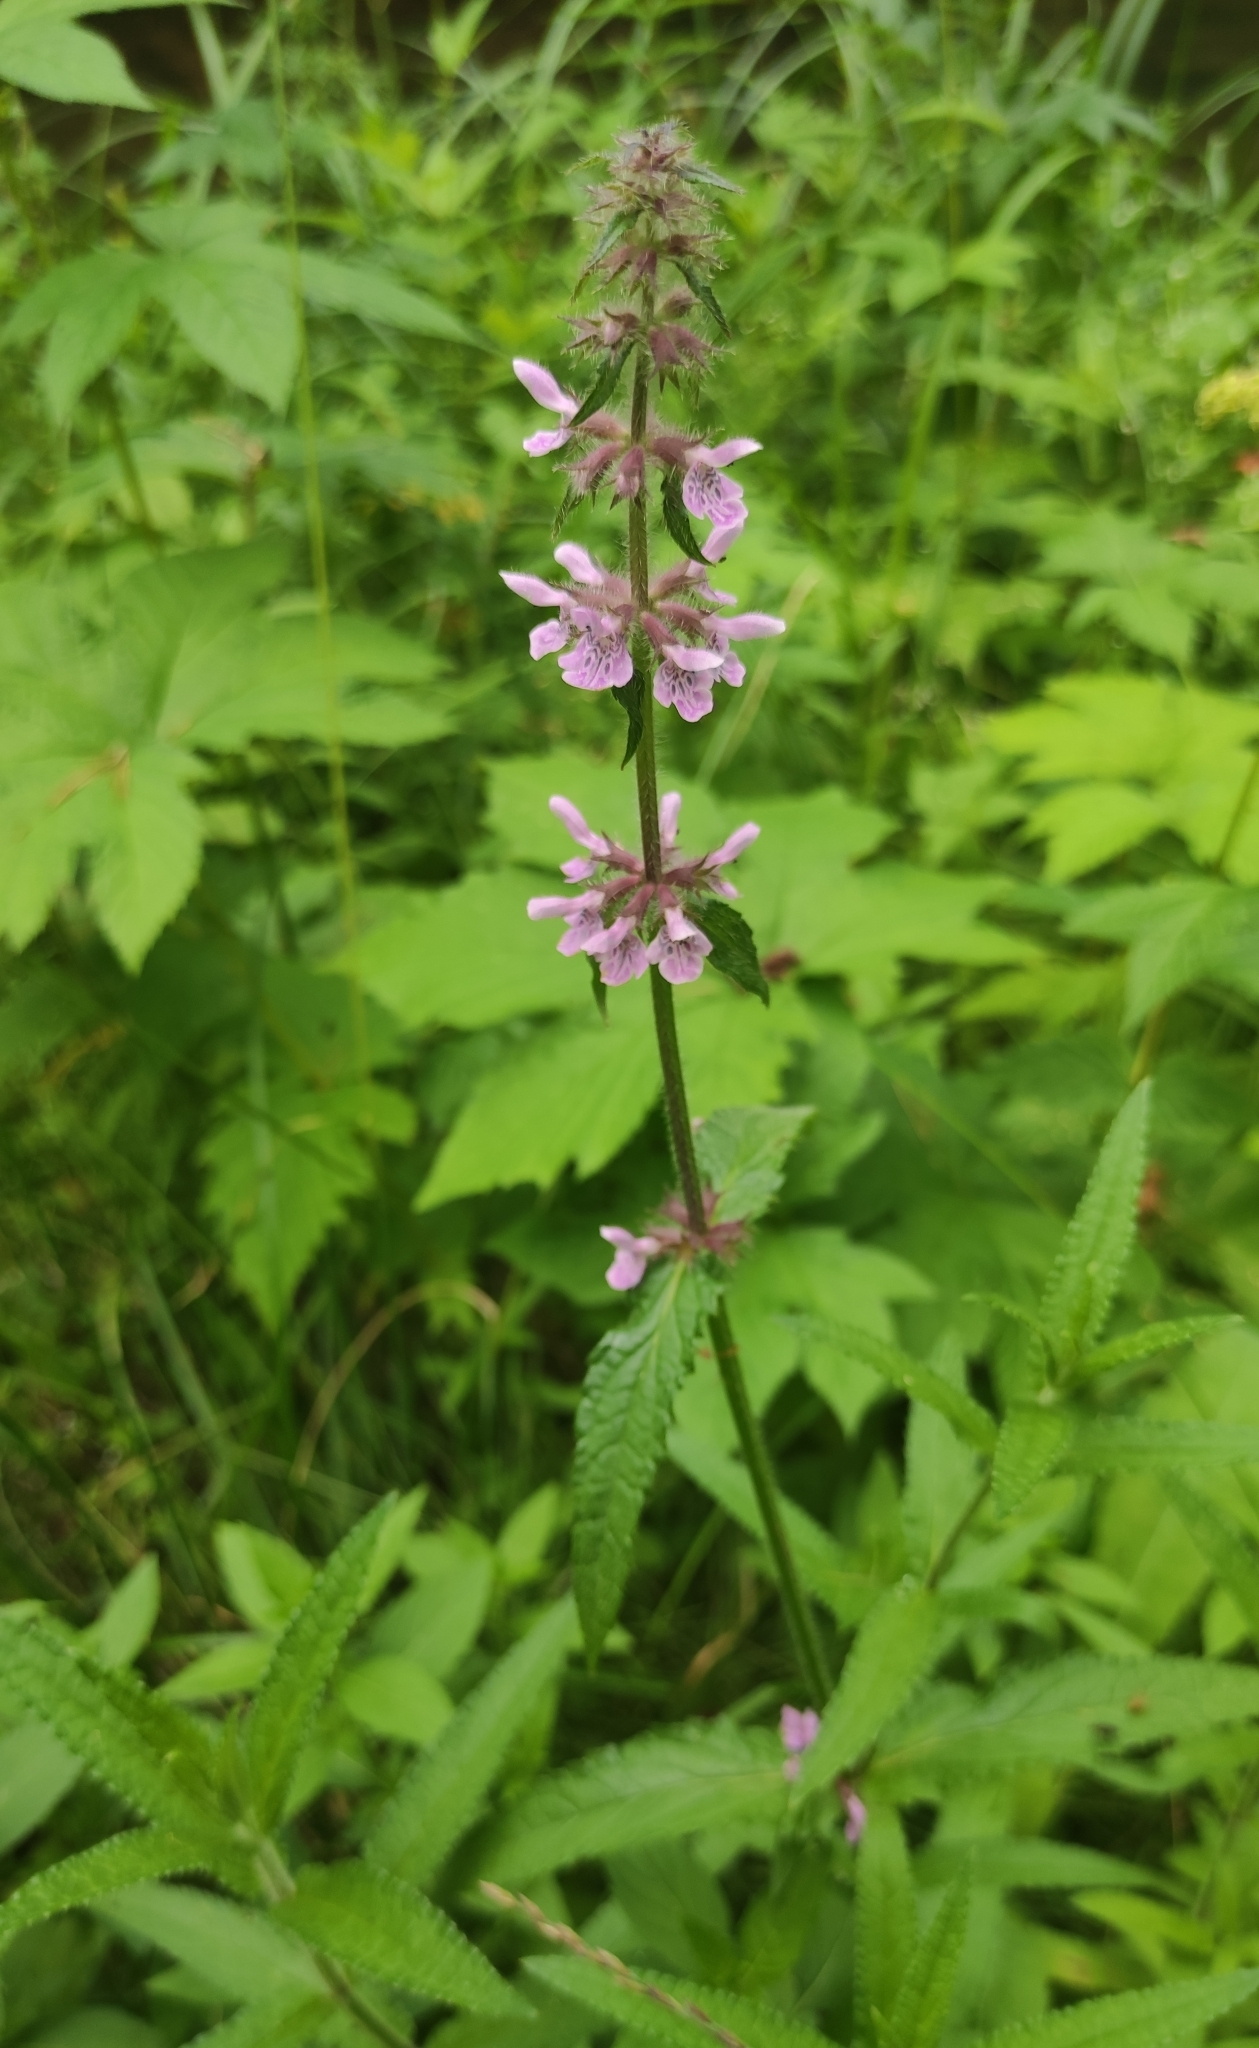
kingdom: Plantae
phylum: Tracheophyta
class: Magnoliopsida
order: Lamiales
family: Lamiaceae
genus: Stachys
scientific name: Stachys aspera
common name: Hyssopleaf hedgenettle
